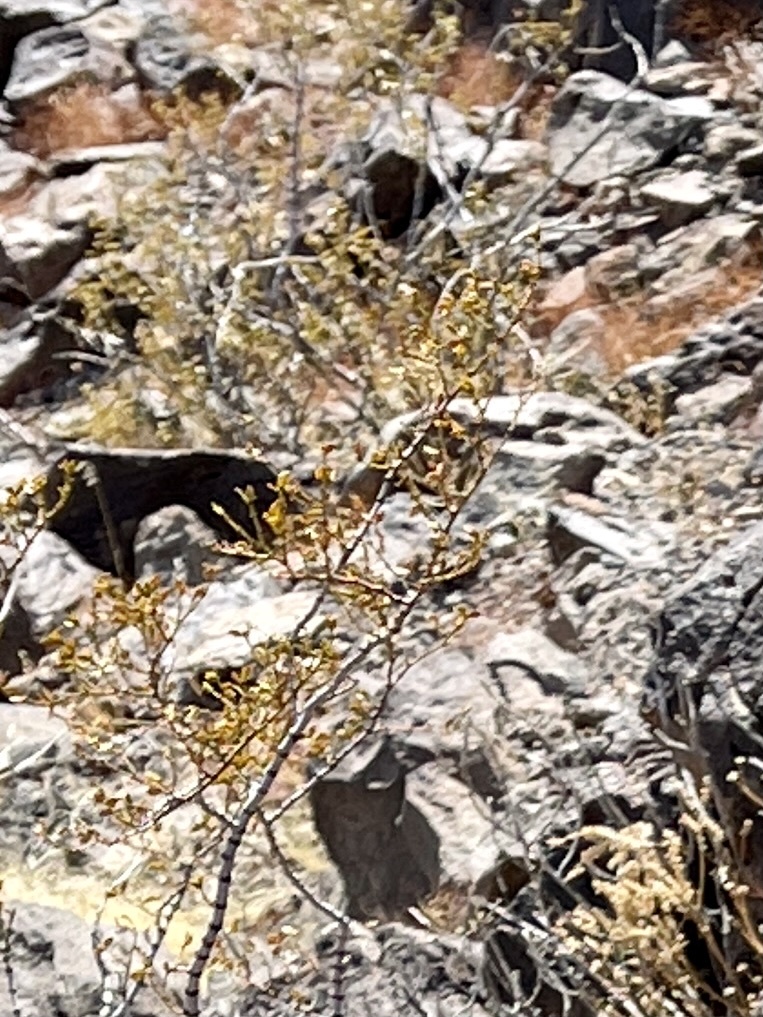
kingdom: Plantae
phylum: Tracheophyta
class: Magnoliopsida
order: Zygophyllales
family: Zygophyllaceae
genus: Larrea
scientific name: Larrea tridentata
